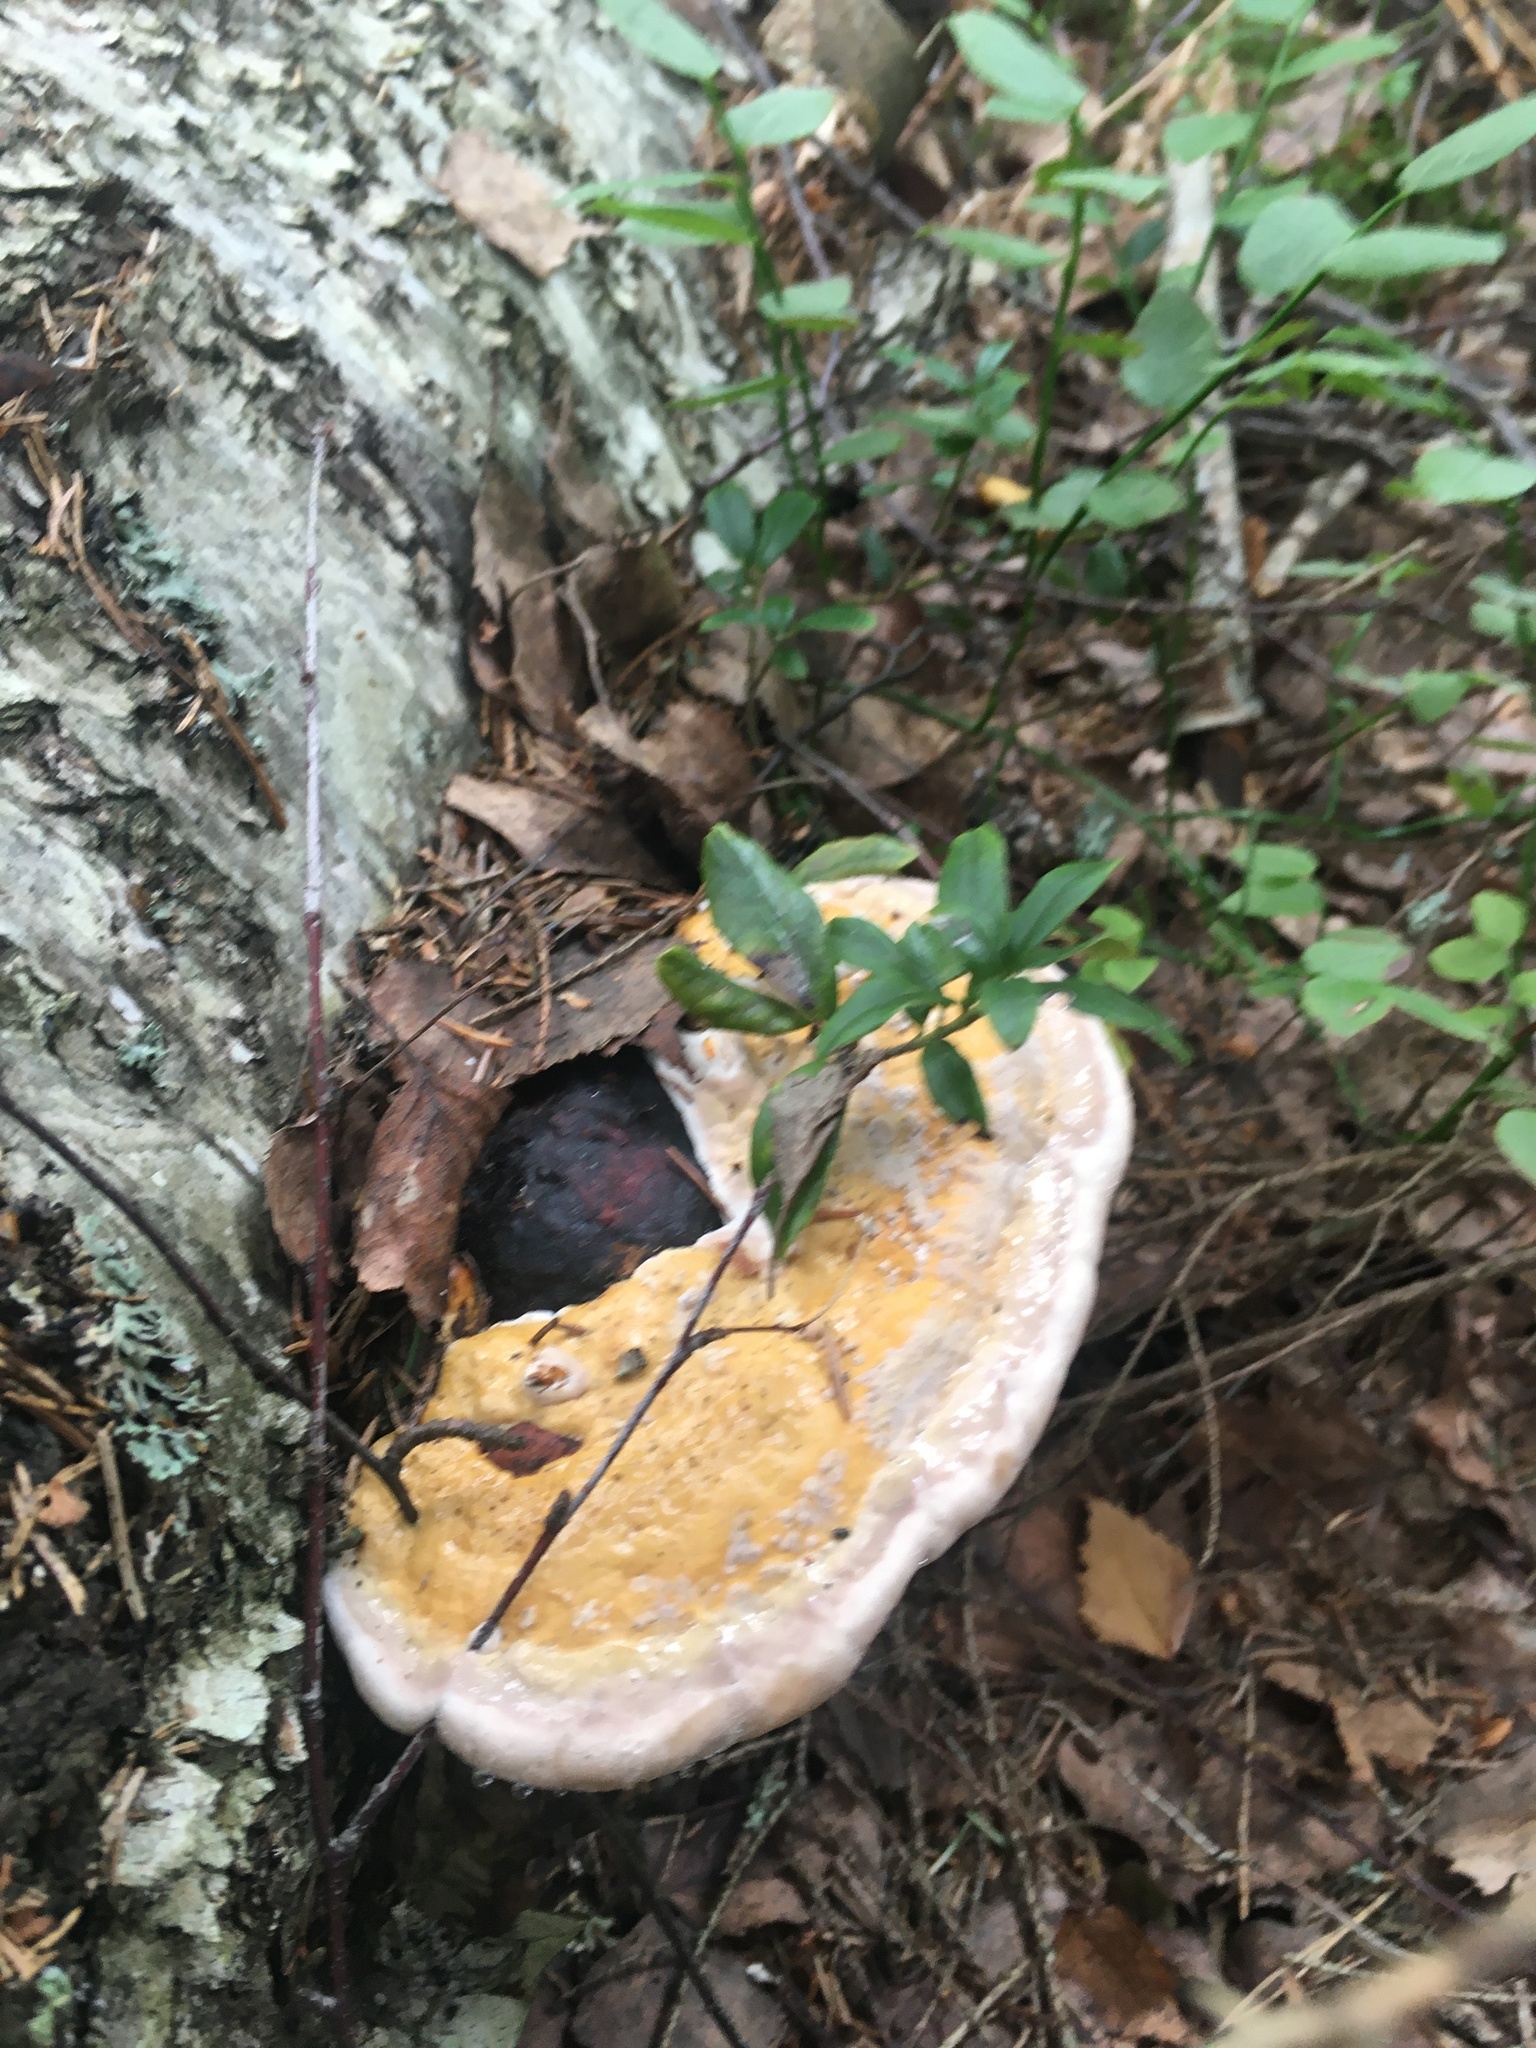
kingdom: Fungi
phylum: Basidiomycota
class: Agaricomycetes
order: Polyporales
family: Fomitopsidaceae
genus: Fomitopsis
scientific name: Fomitopsis pinicola
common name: Red-belted bracket
